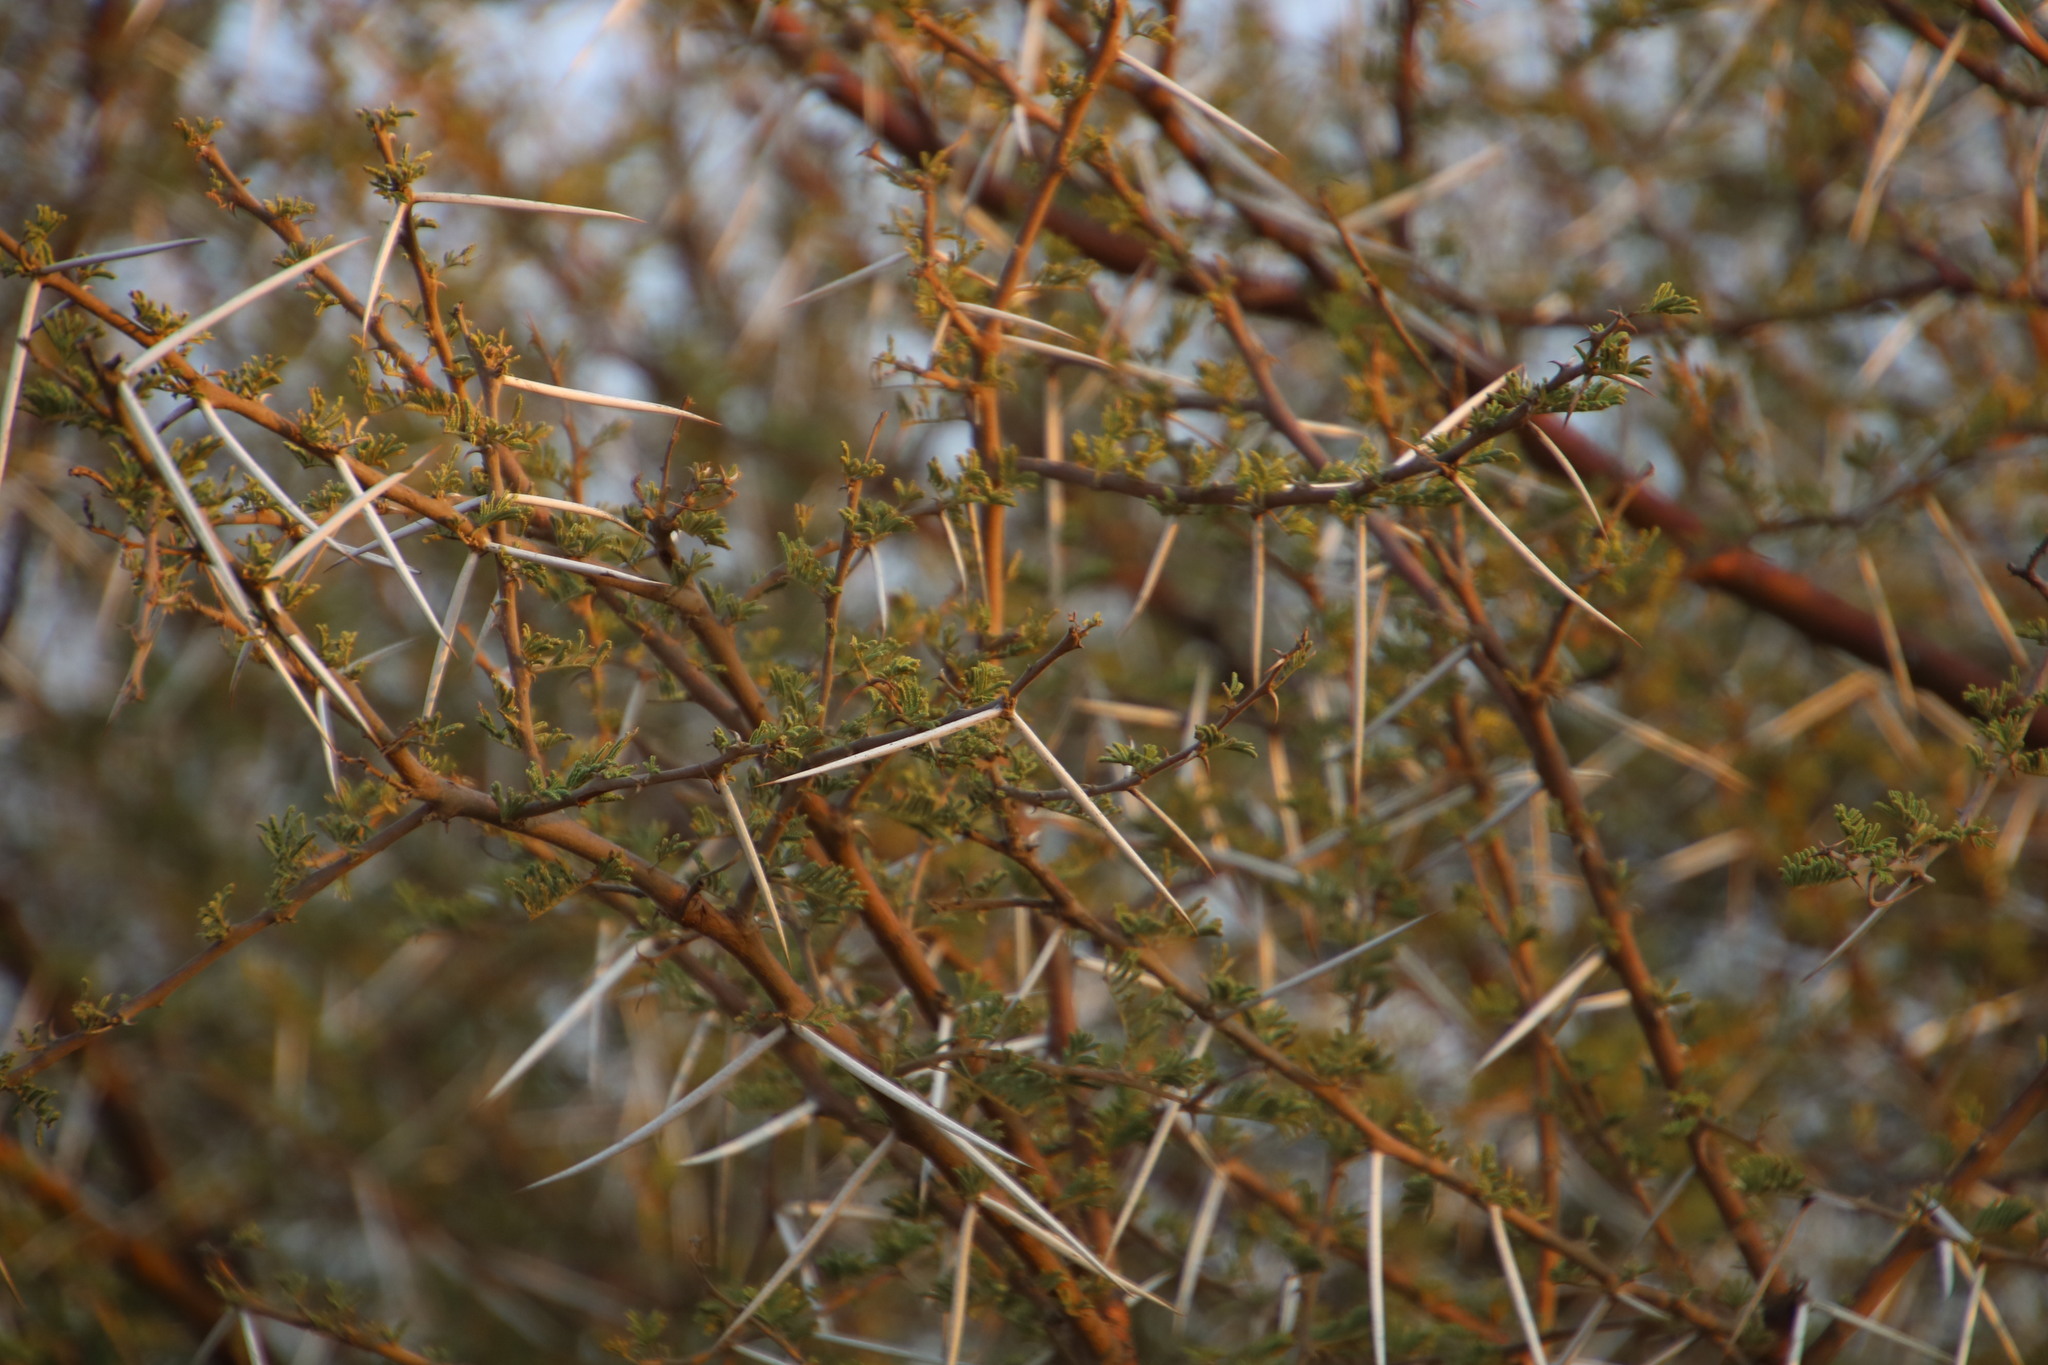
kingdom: Plantae
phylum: Tracheophyta
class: Magnoliopsida
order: Fabales
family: Fabaceae
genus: Vachellia
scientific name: Vachellia tortilis
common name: Umbrella thorn acacia
